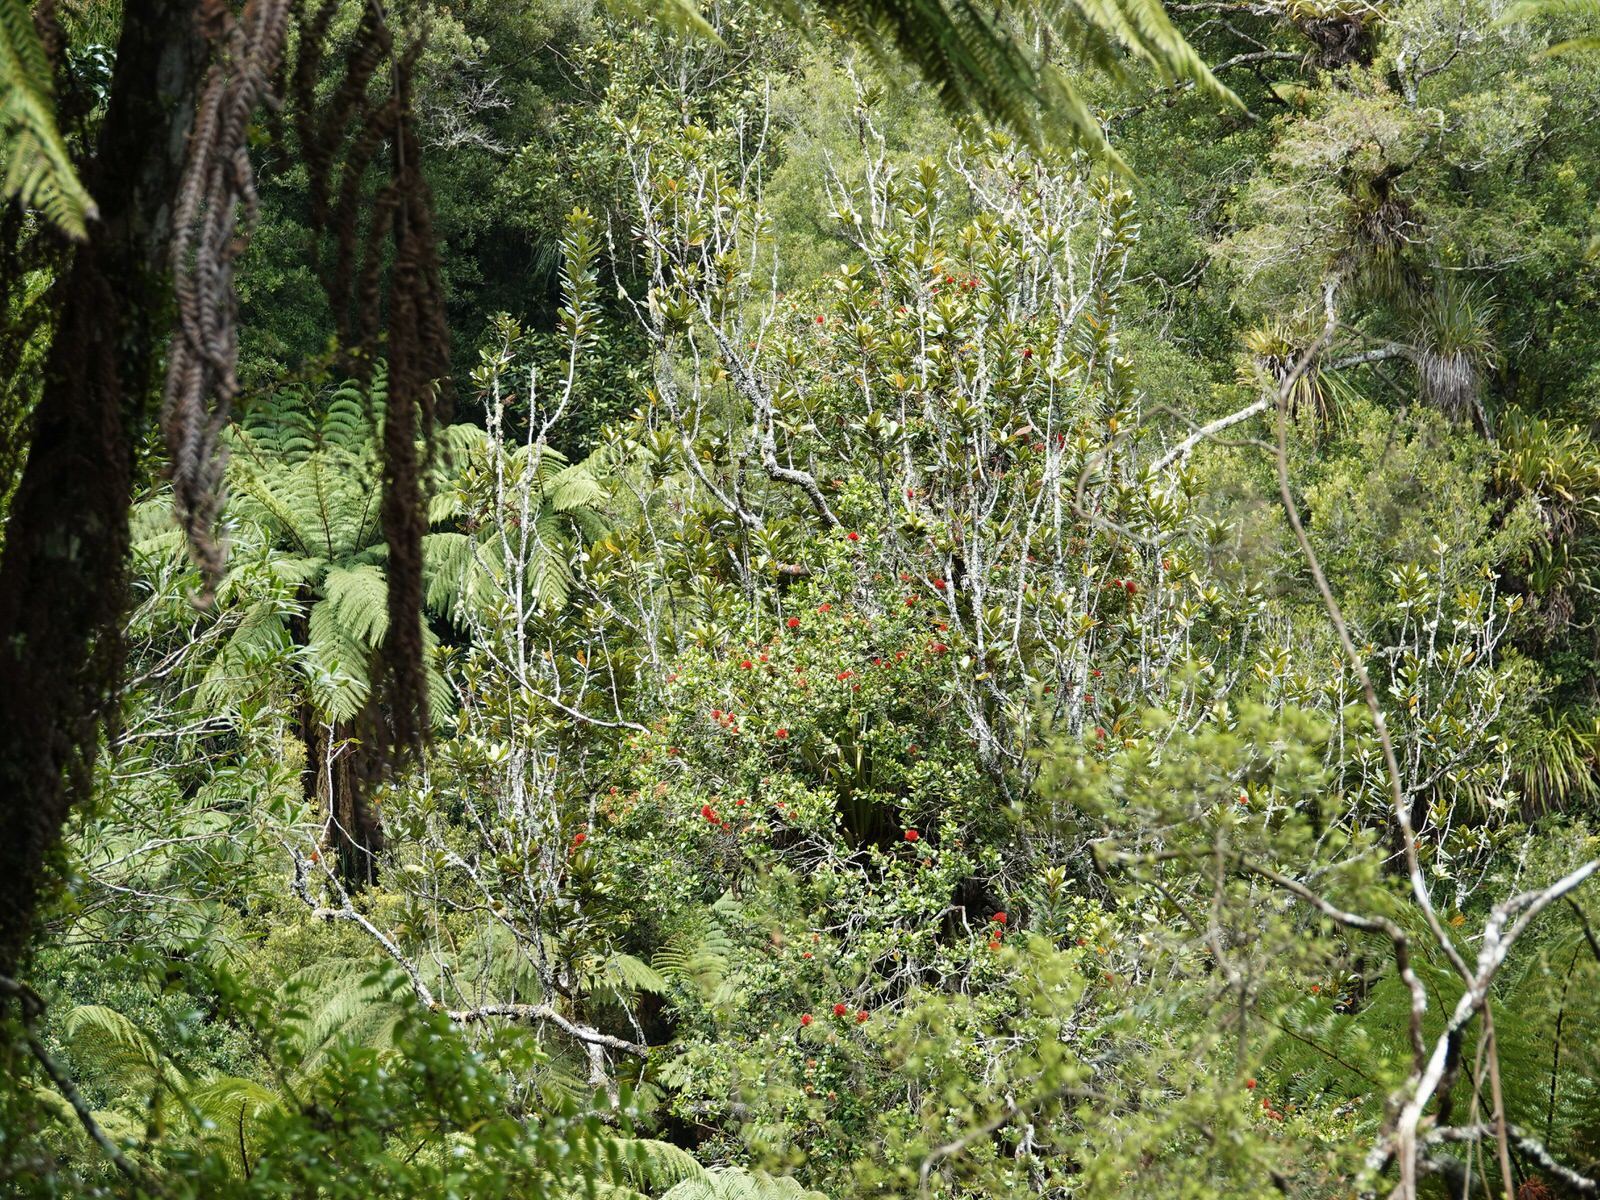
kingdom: Plantae
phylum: Tracheophyta
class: Magnoliopsida
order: Myrtales
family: Myrtaceae
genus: Metrosideros
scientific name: Metrosideros fulgens
